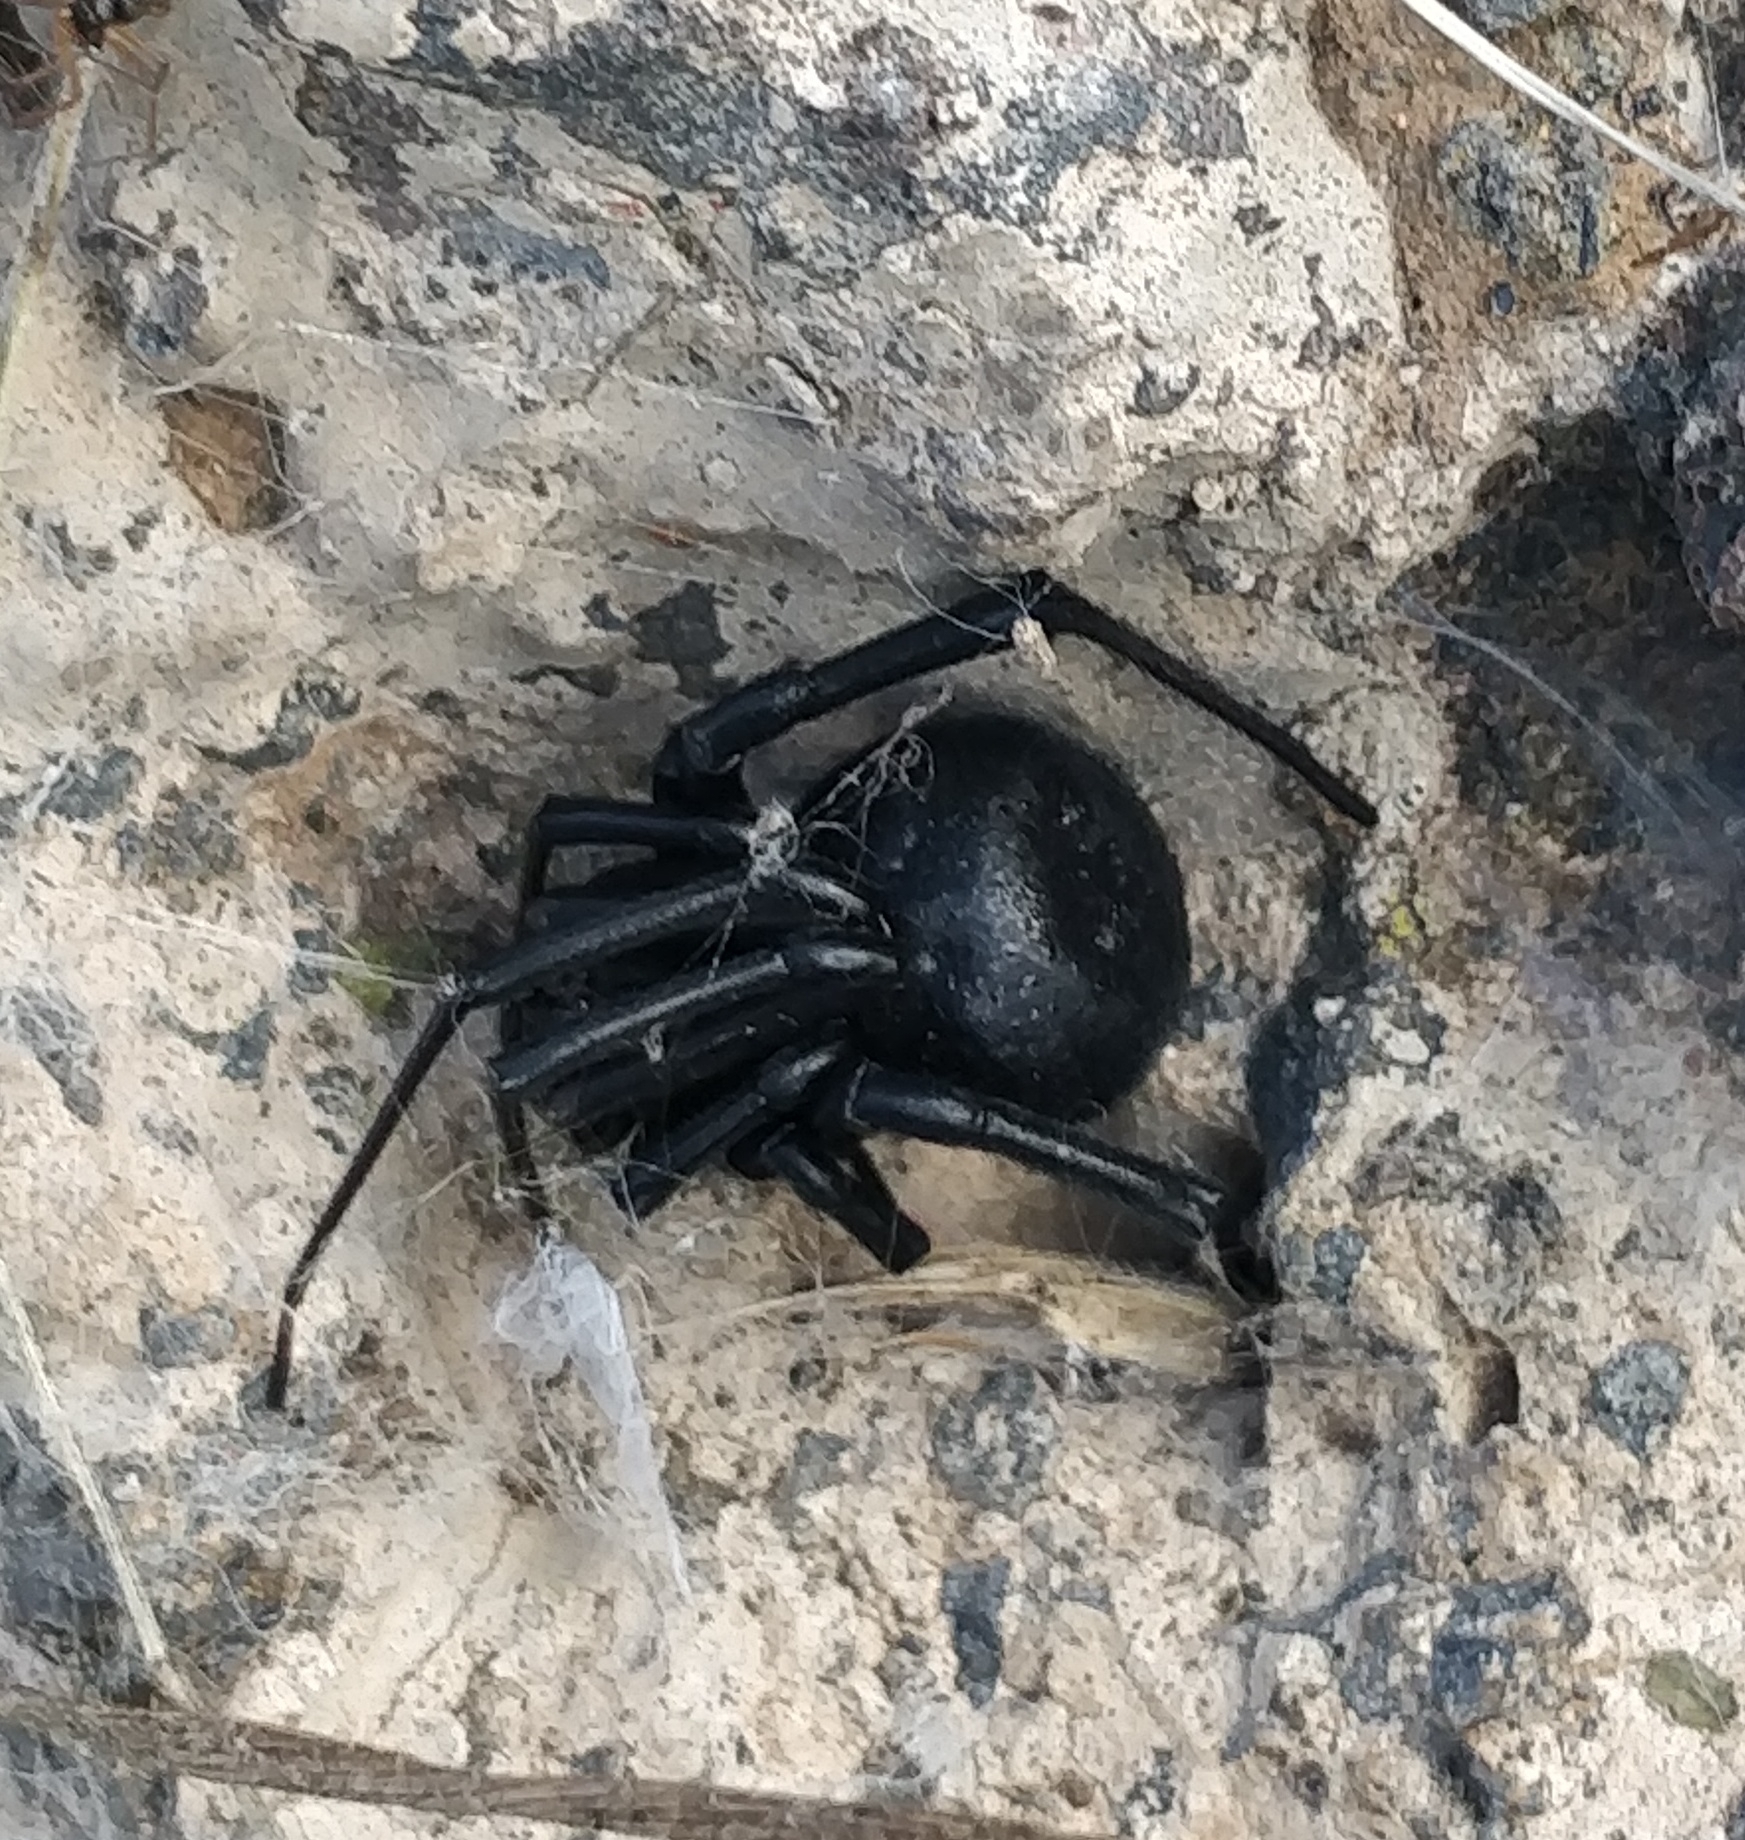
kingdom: Animalia
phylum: Arthropoda
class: Arachnida
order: Araneae
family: Theridiidae
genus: Latrodectus
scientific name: Latrodectus tredecimguttatus
